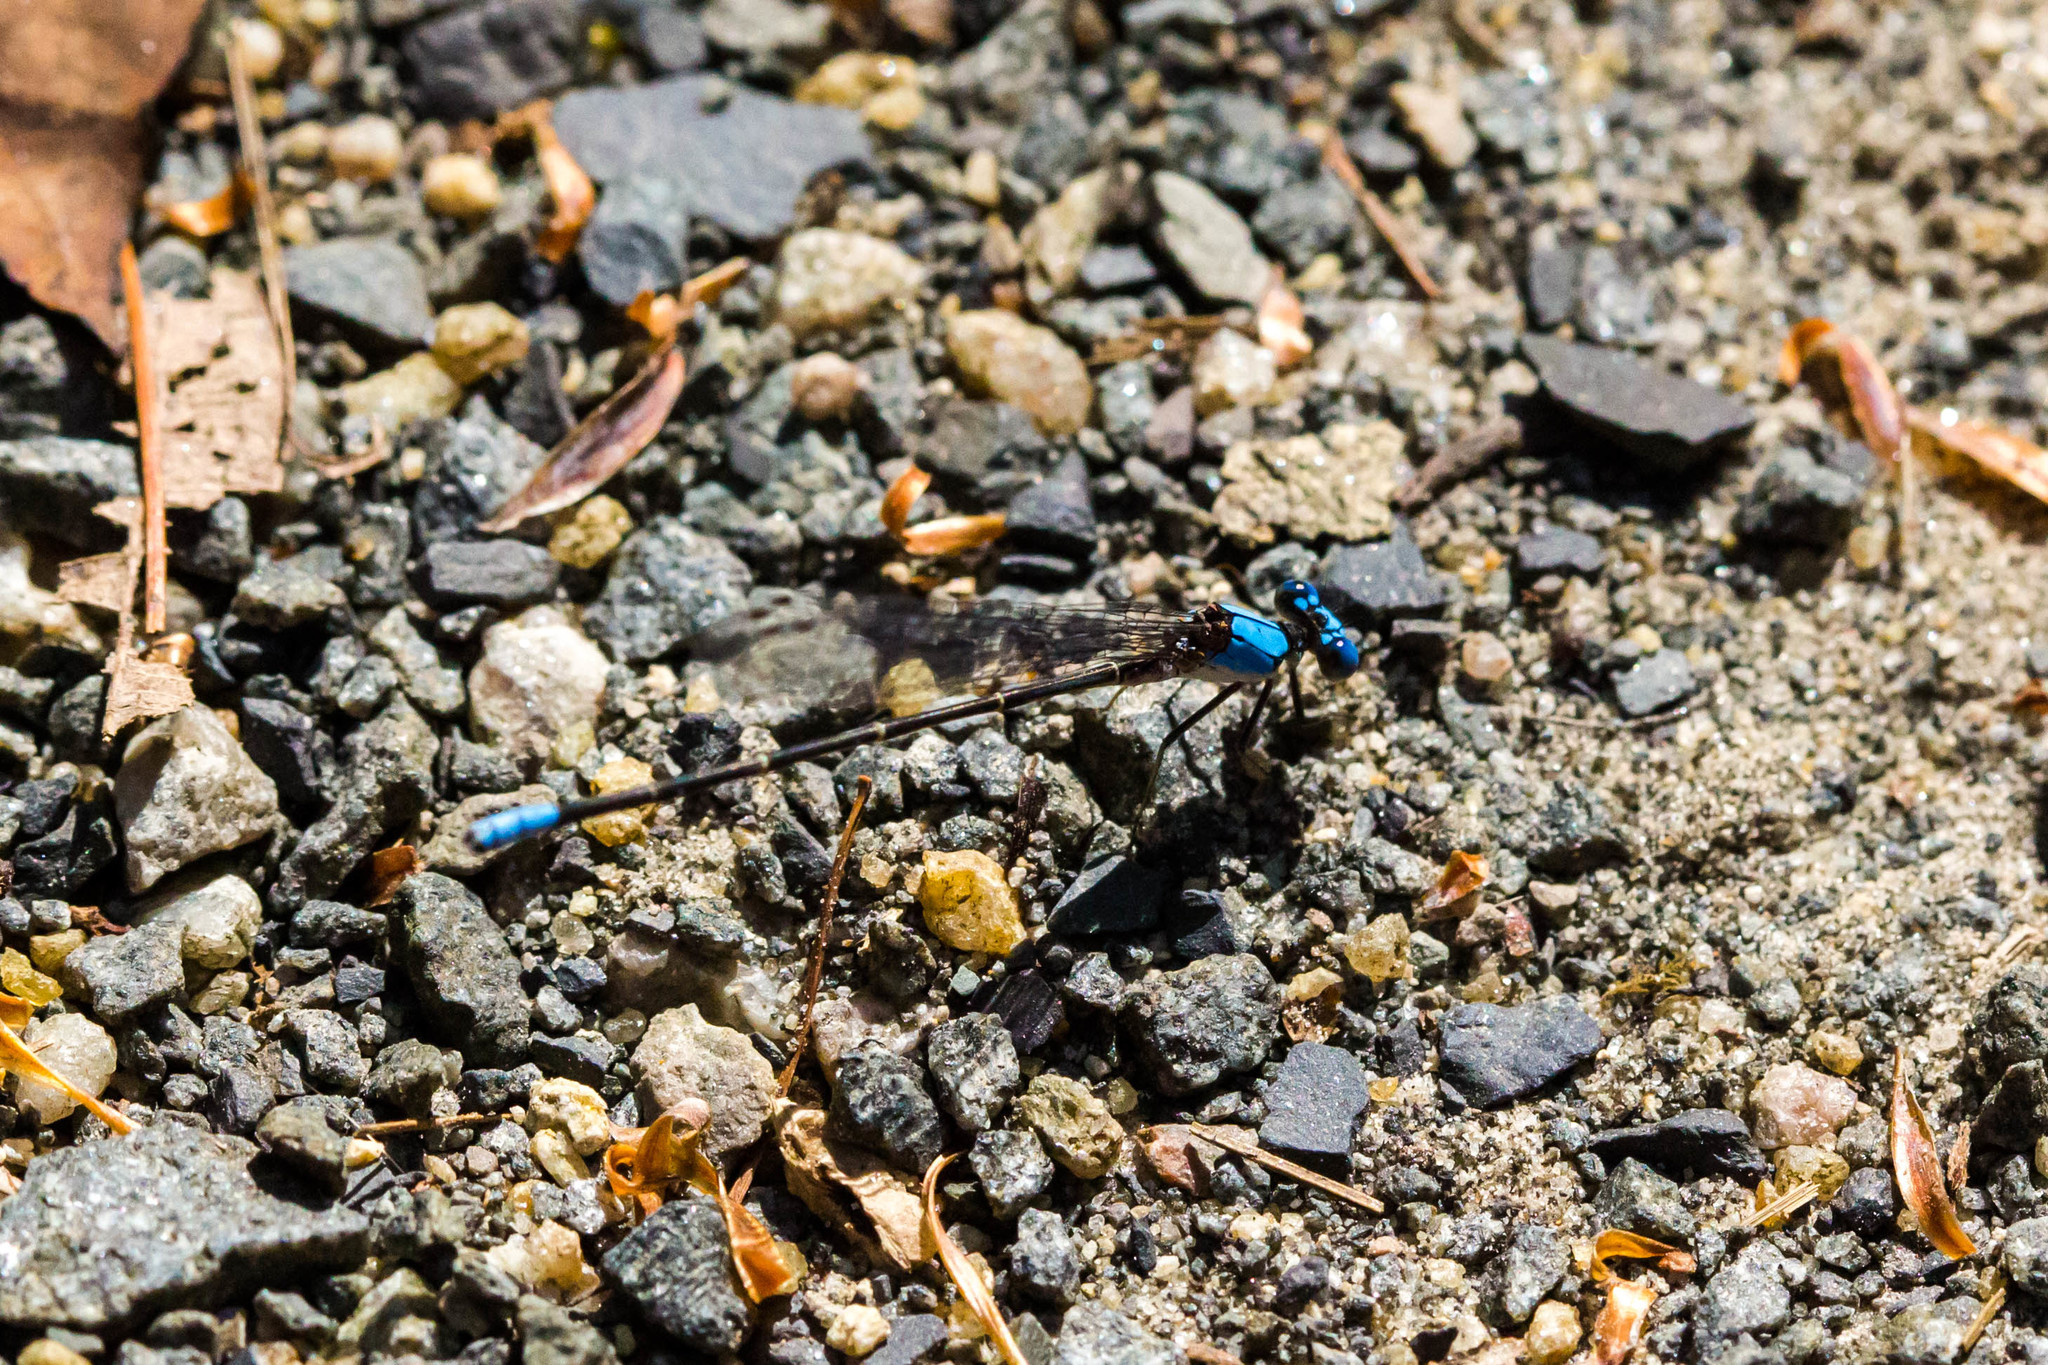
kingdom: Animalia
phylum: Arthropoda
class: Insecta
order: Odonata
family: Coenagrionidae
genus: Argia
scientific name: Argia apicalis
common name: Blue-fronted dancer
